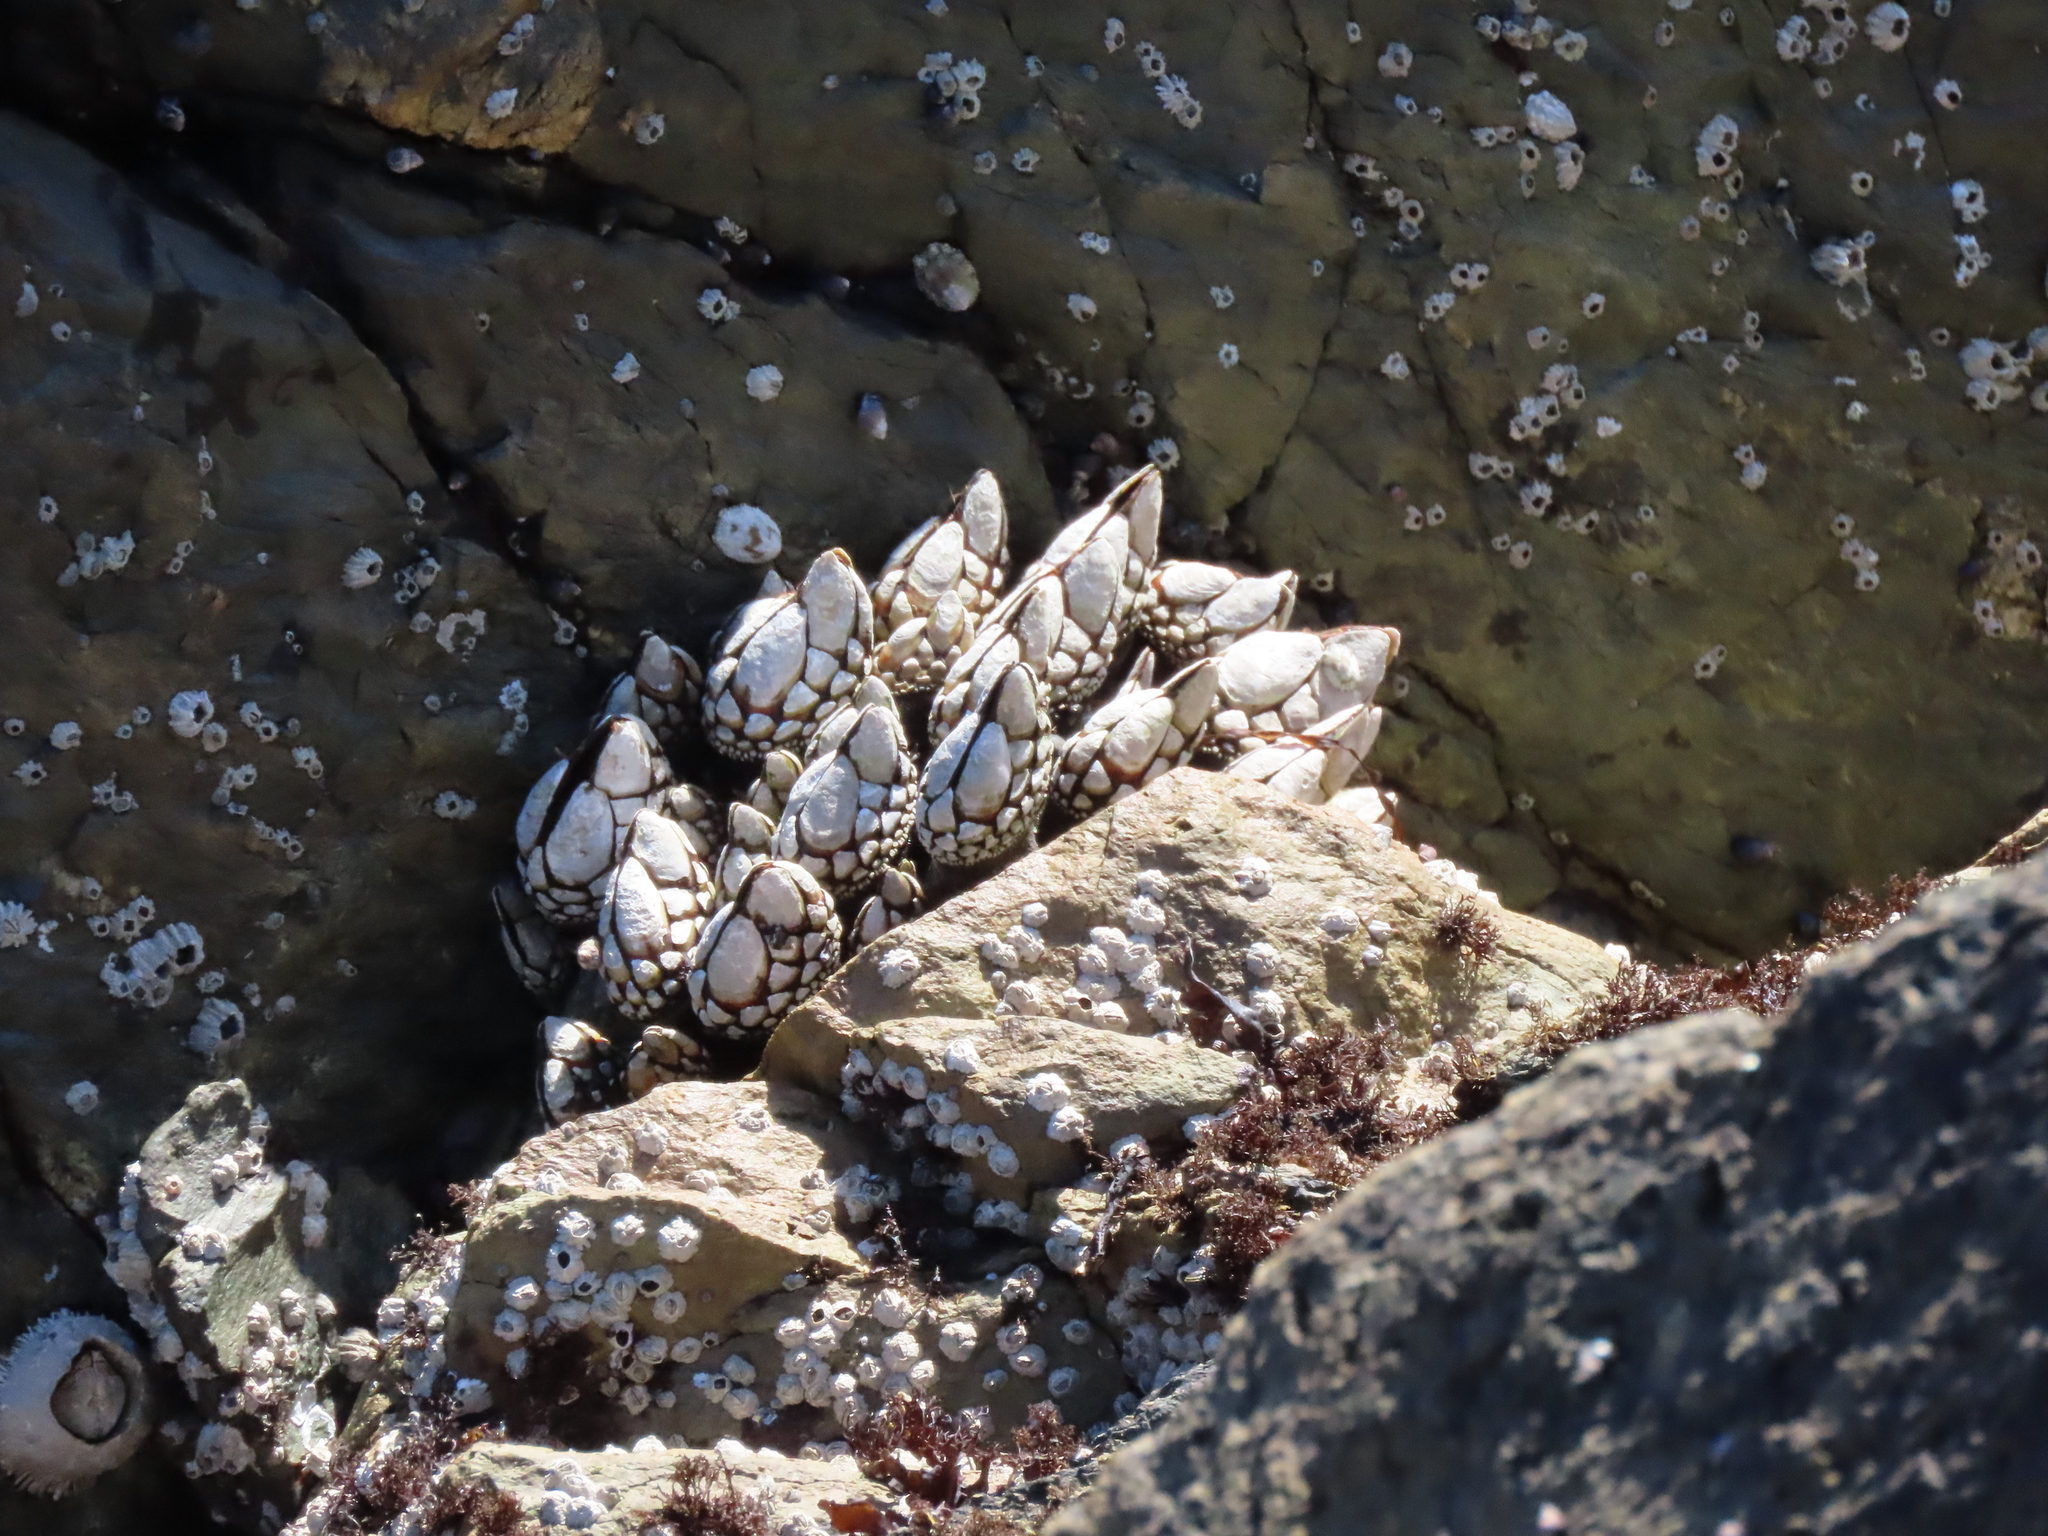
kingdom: Animalia
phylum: Arthropoda
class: Maxillopoda
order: Pedunculata
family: Pollicipedidae
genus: Pollicipes
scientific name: Pollicipes polymerus
